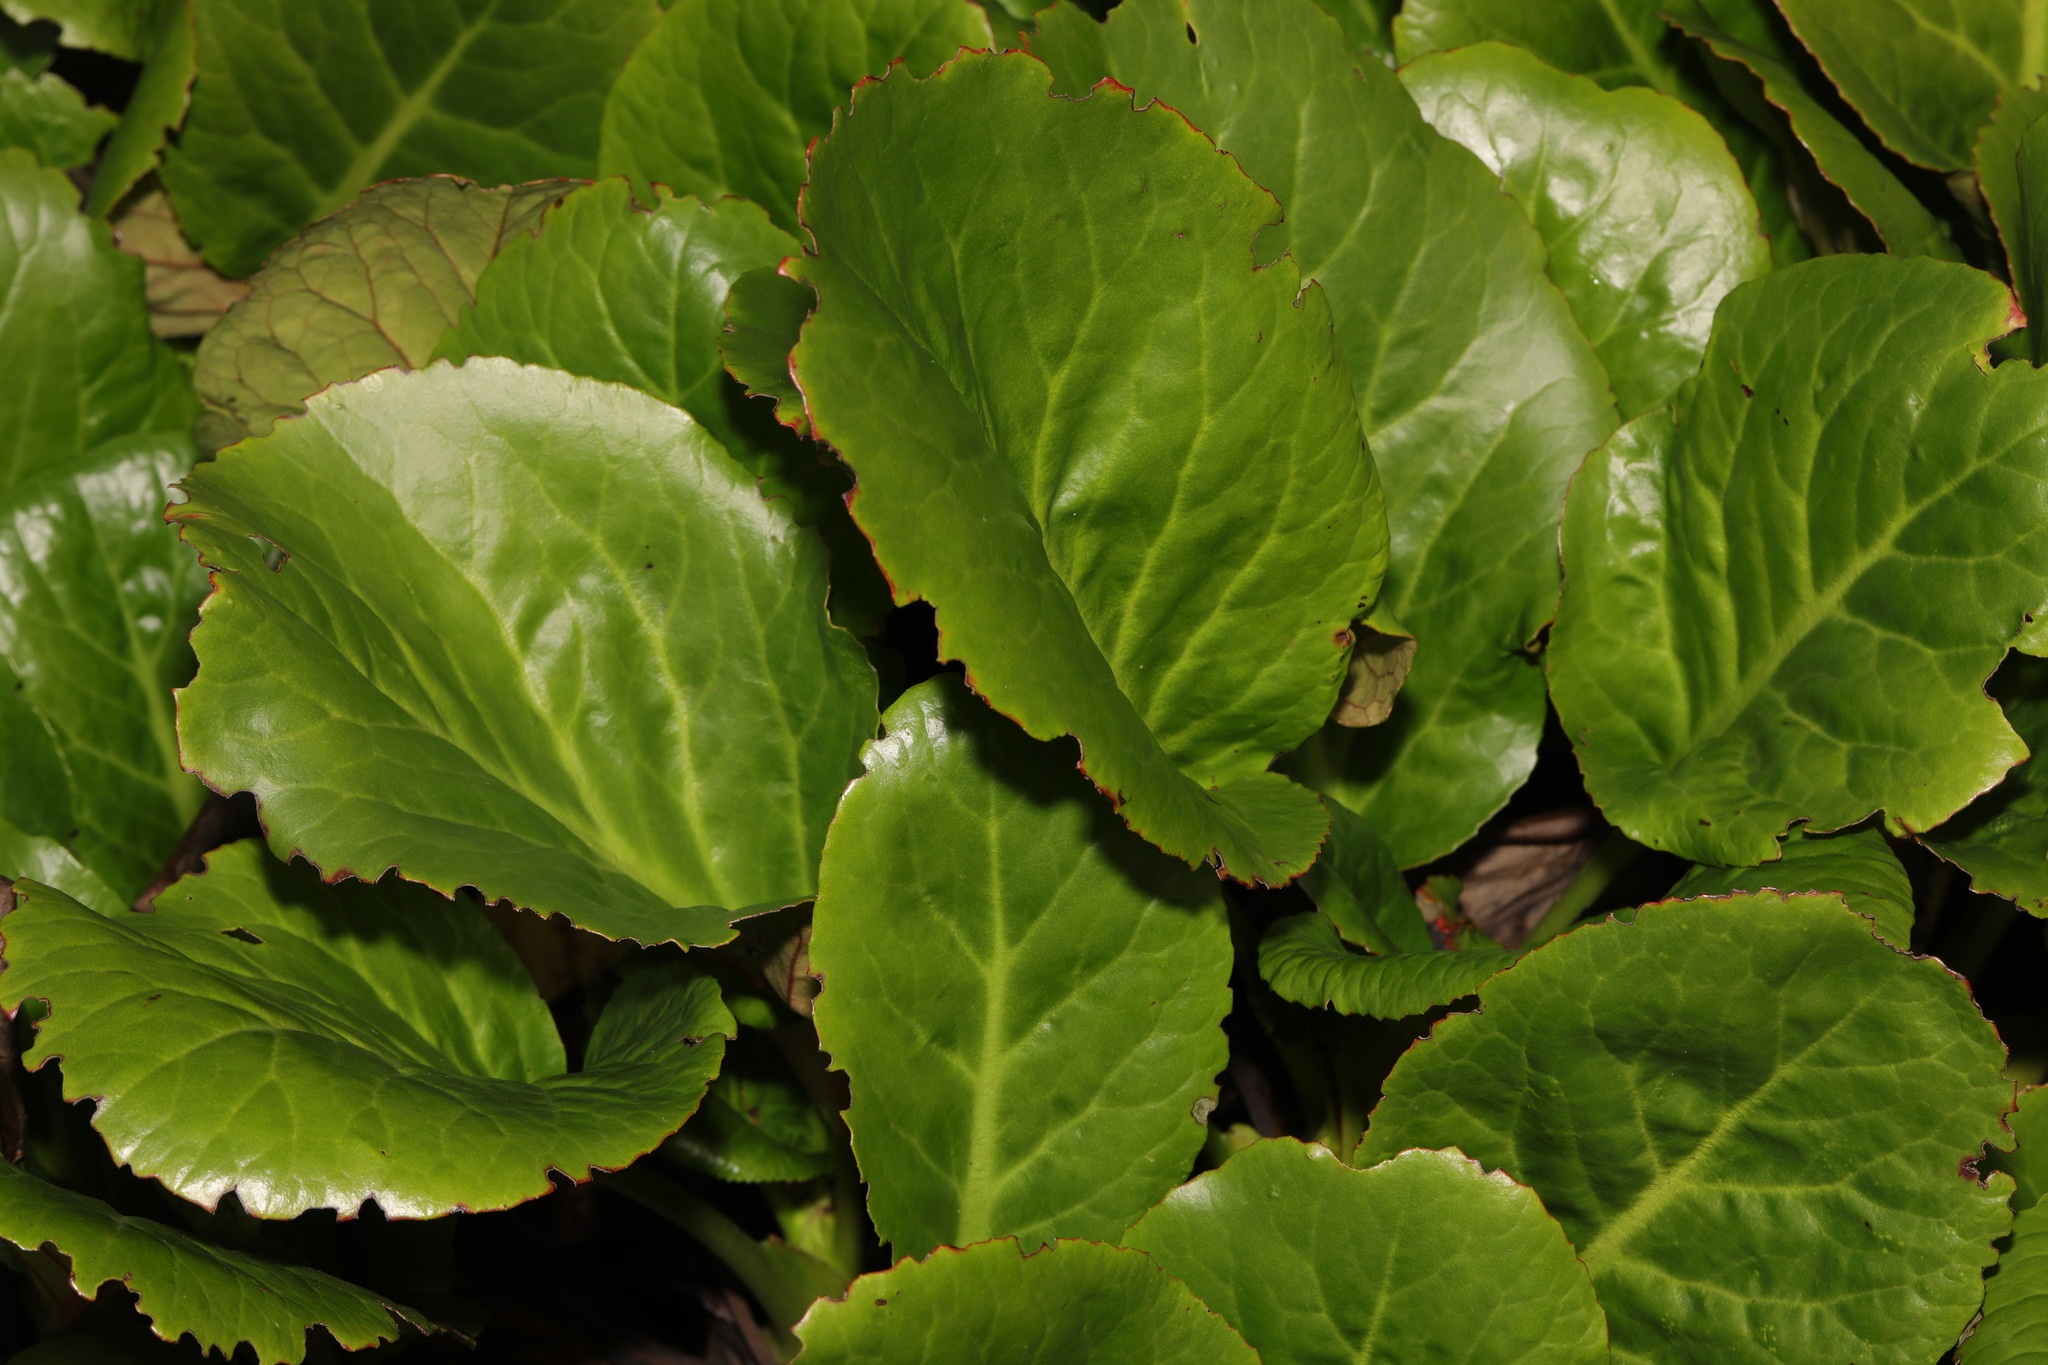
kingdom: Plantae
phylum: Tracheophyta
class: Magnoliopsida
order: Saxifragales
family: Saxifragaceae
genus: Bergenia
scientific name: Bergenia crassifolia
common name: Elephant-ears
